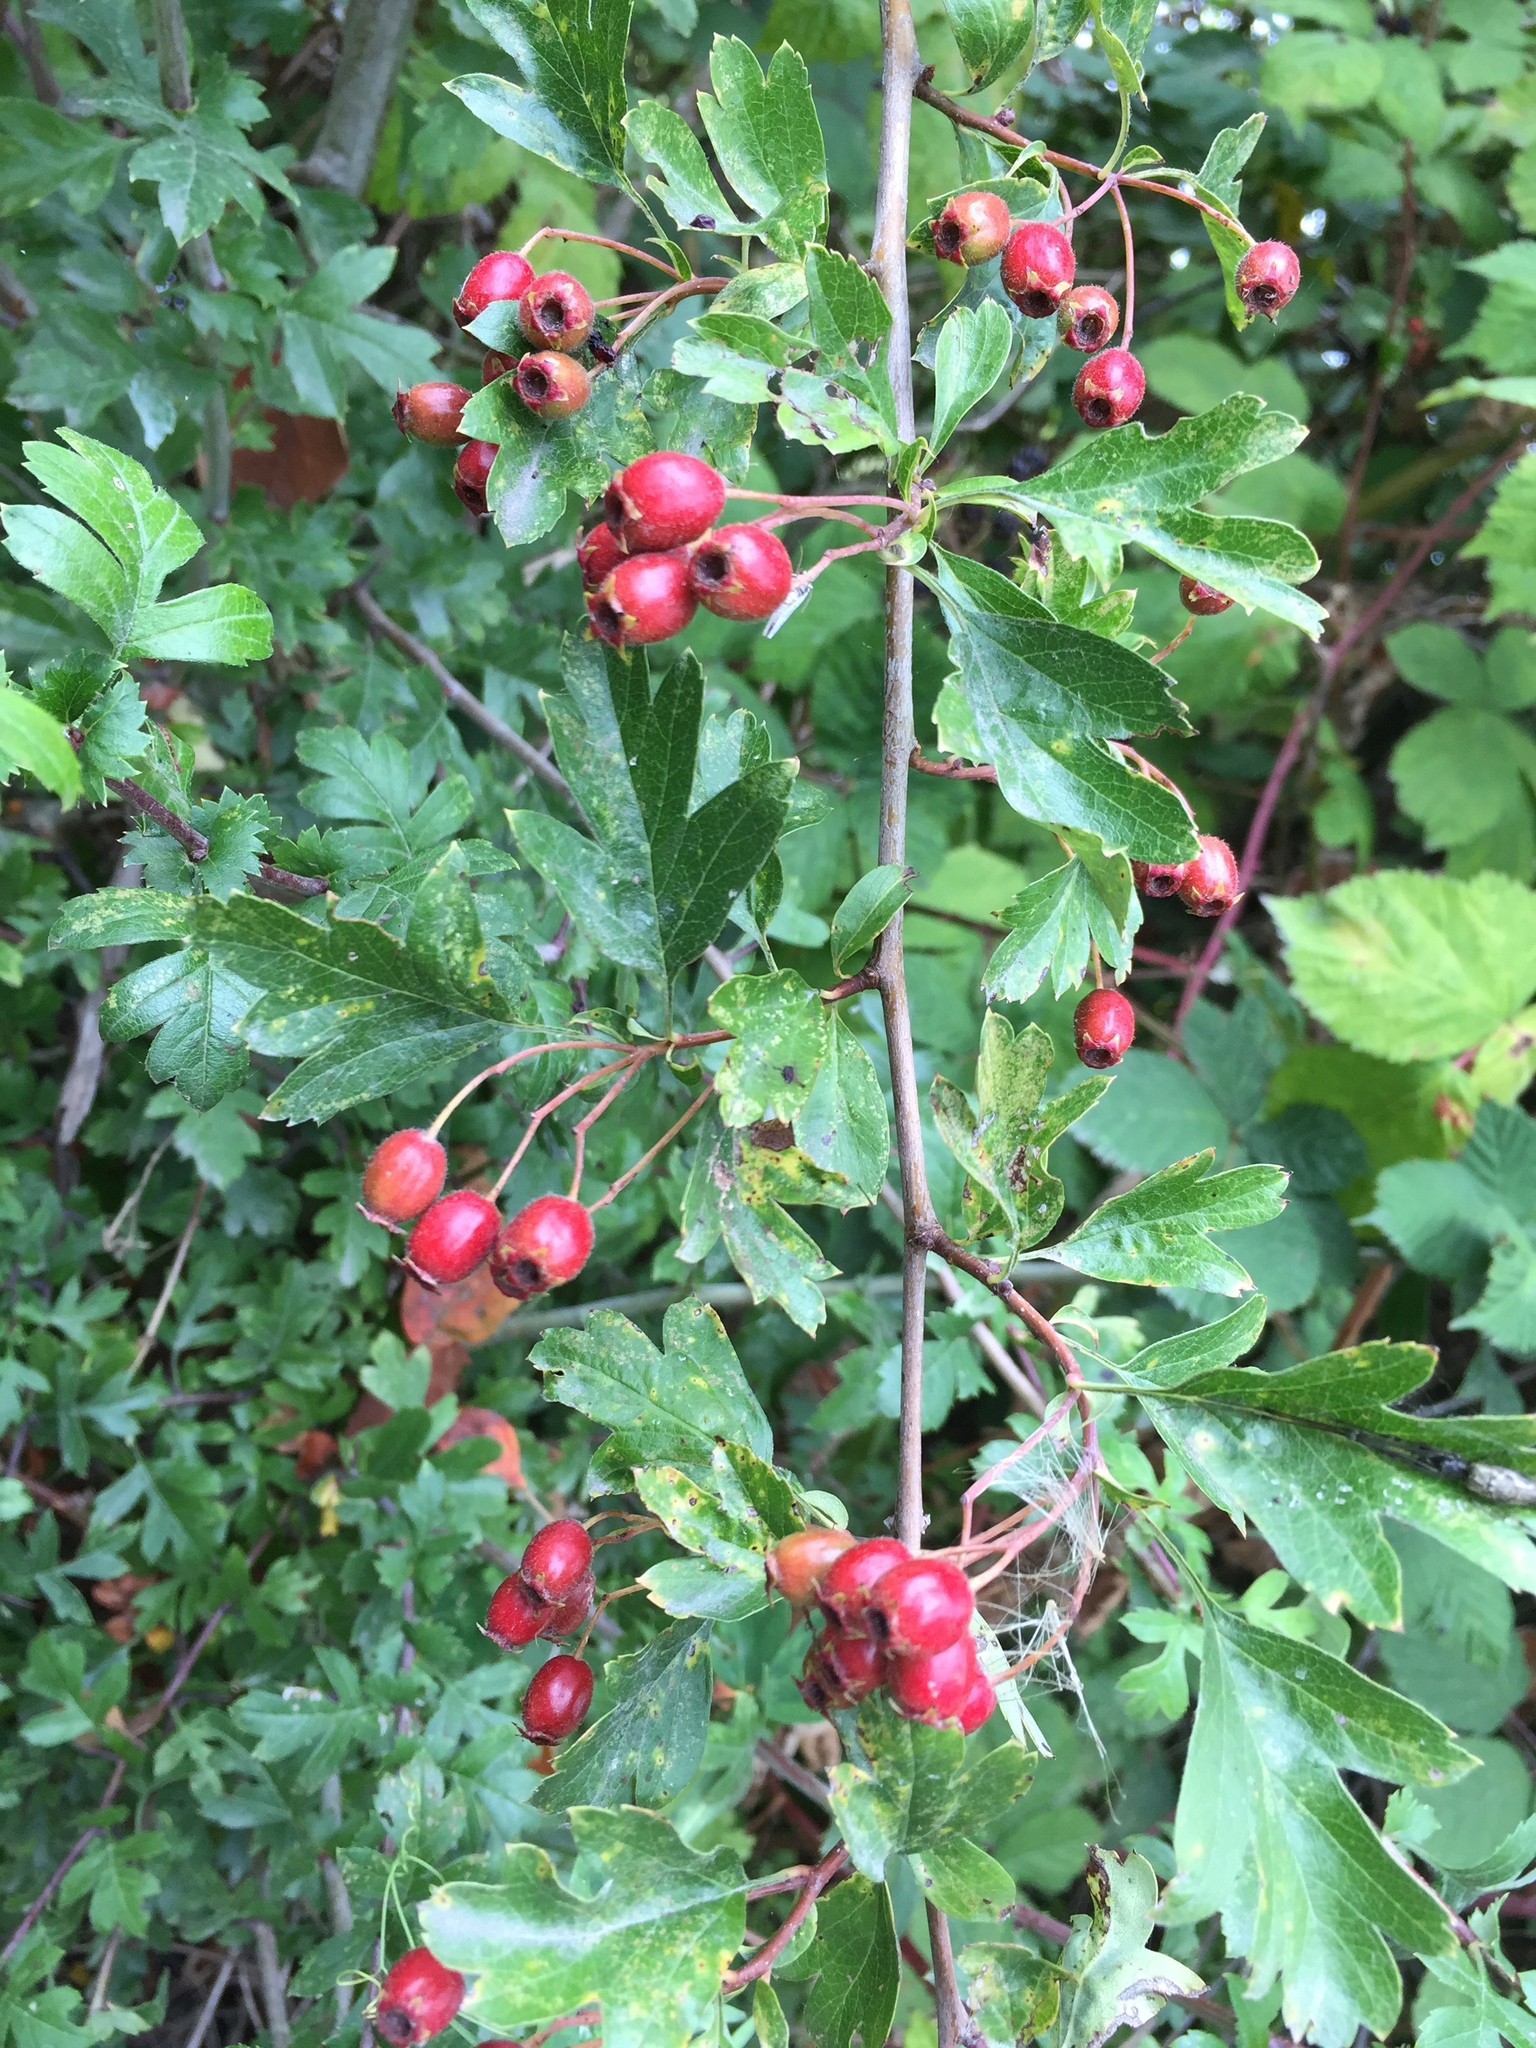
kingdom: Plantae
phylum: Tracheophyta
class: Magnoliopsida
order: Rosales
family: Rosaceae
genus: Crataegus
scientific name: Crataegus monogyna
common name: Hawthorn
